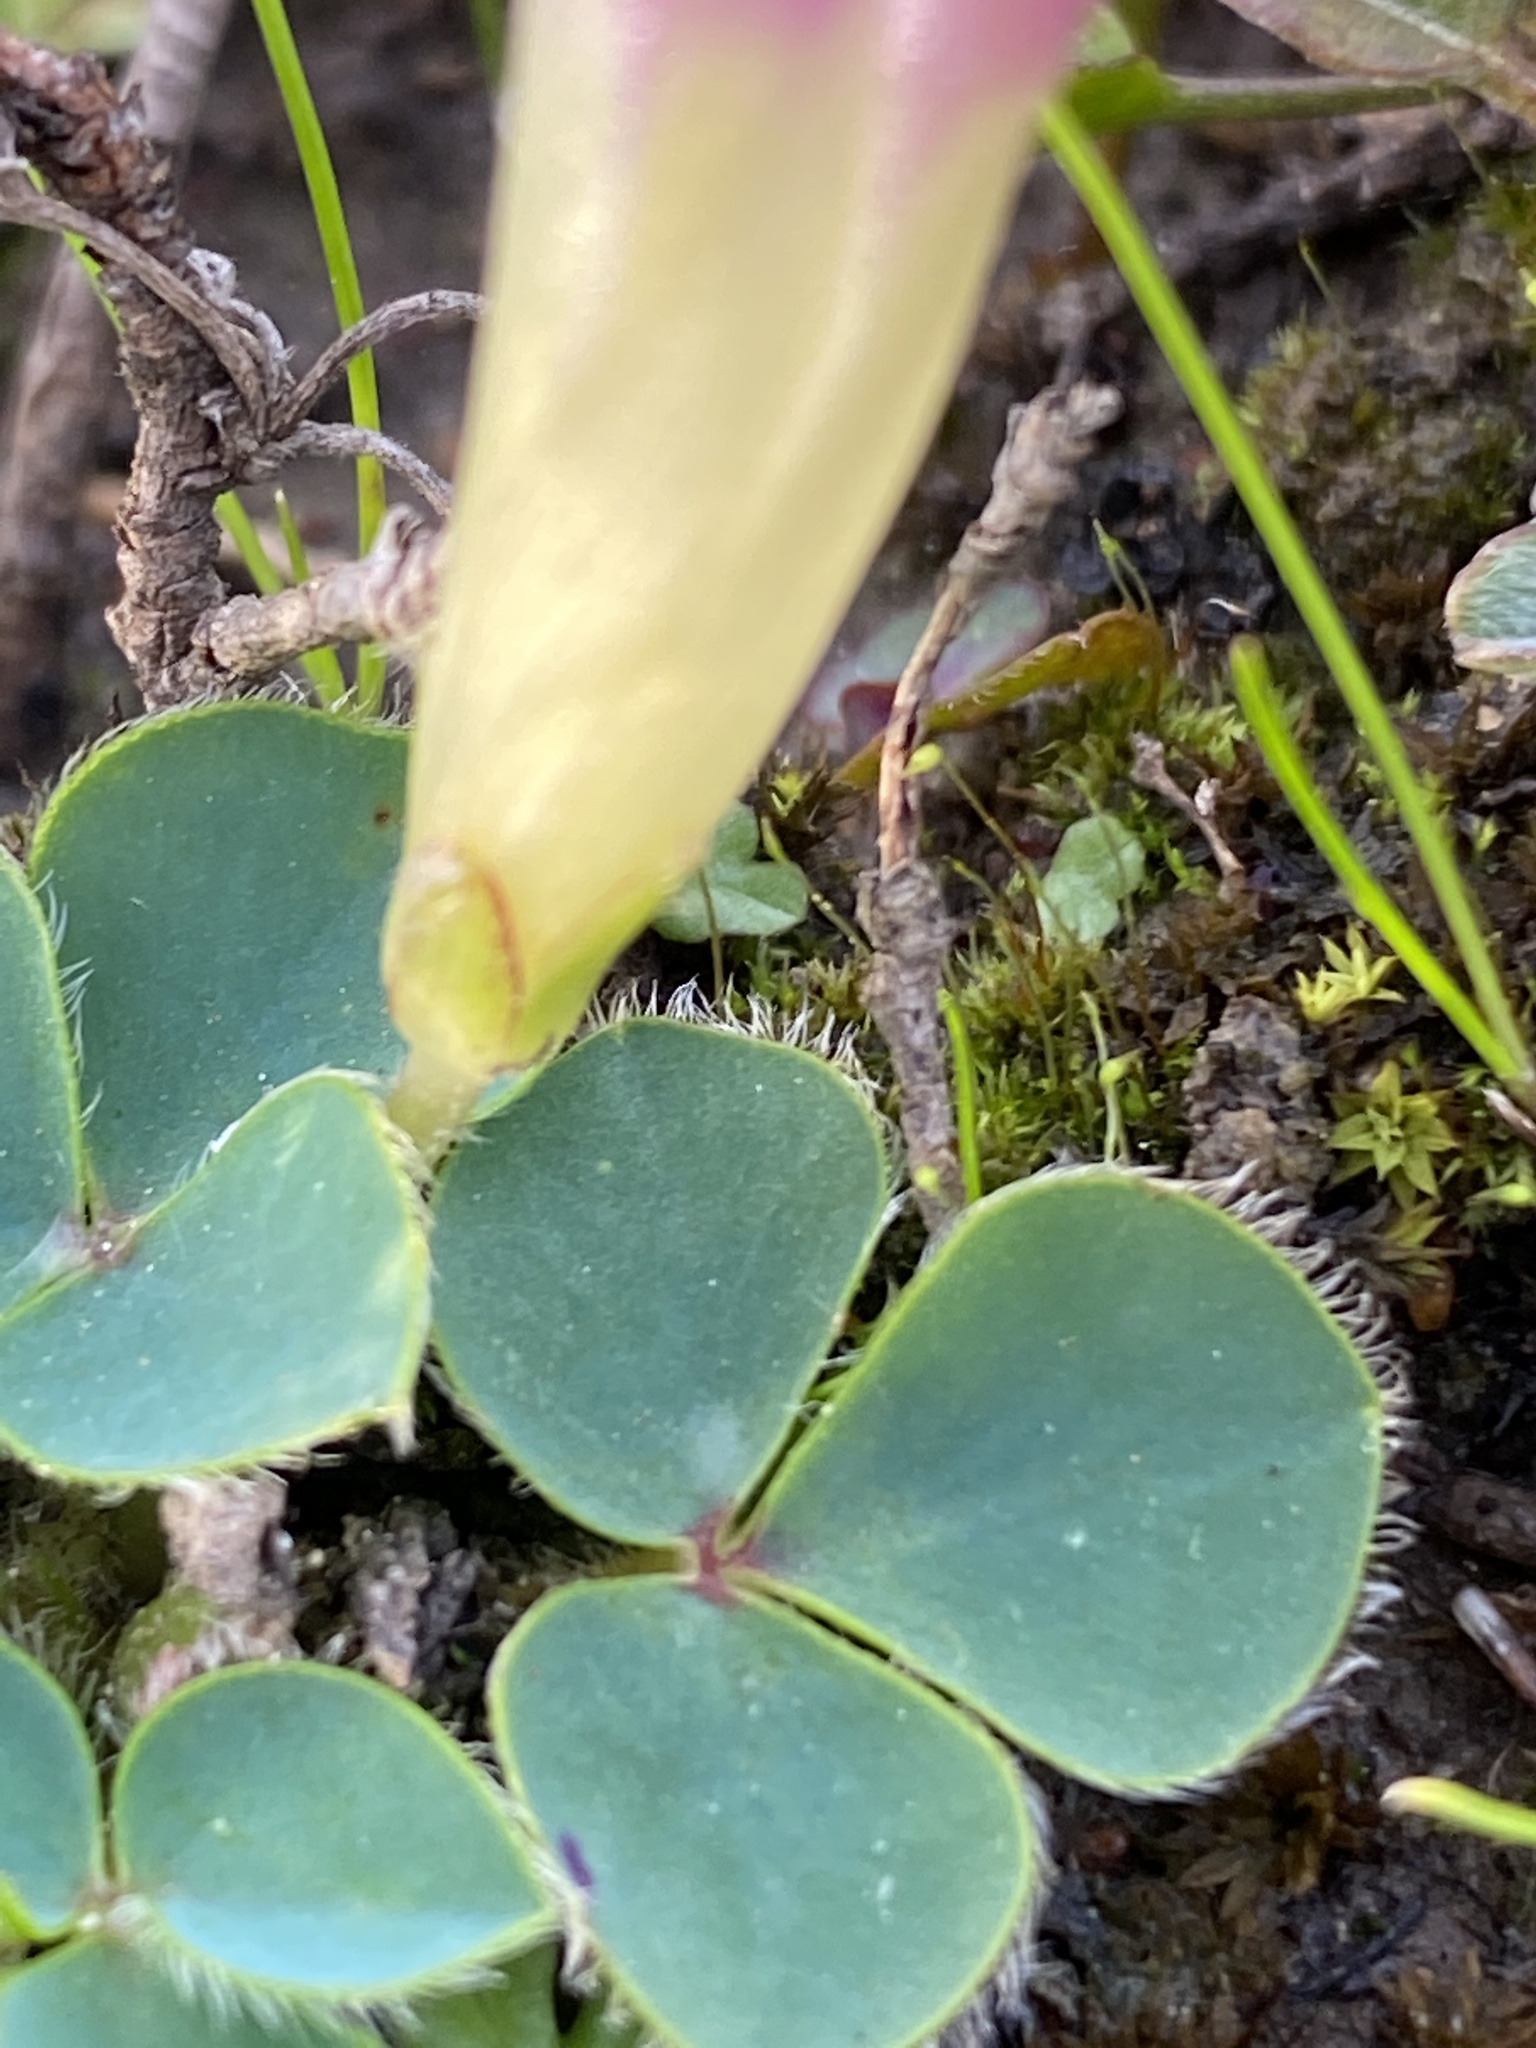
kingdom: Plantae
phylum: Tracheophyta
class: Magnoliopsida
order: Oxalidales
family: Oxalidaceae
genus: Oxalis
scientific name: Oxalis purpurea
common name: Purple woodsorrel
